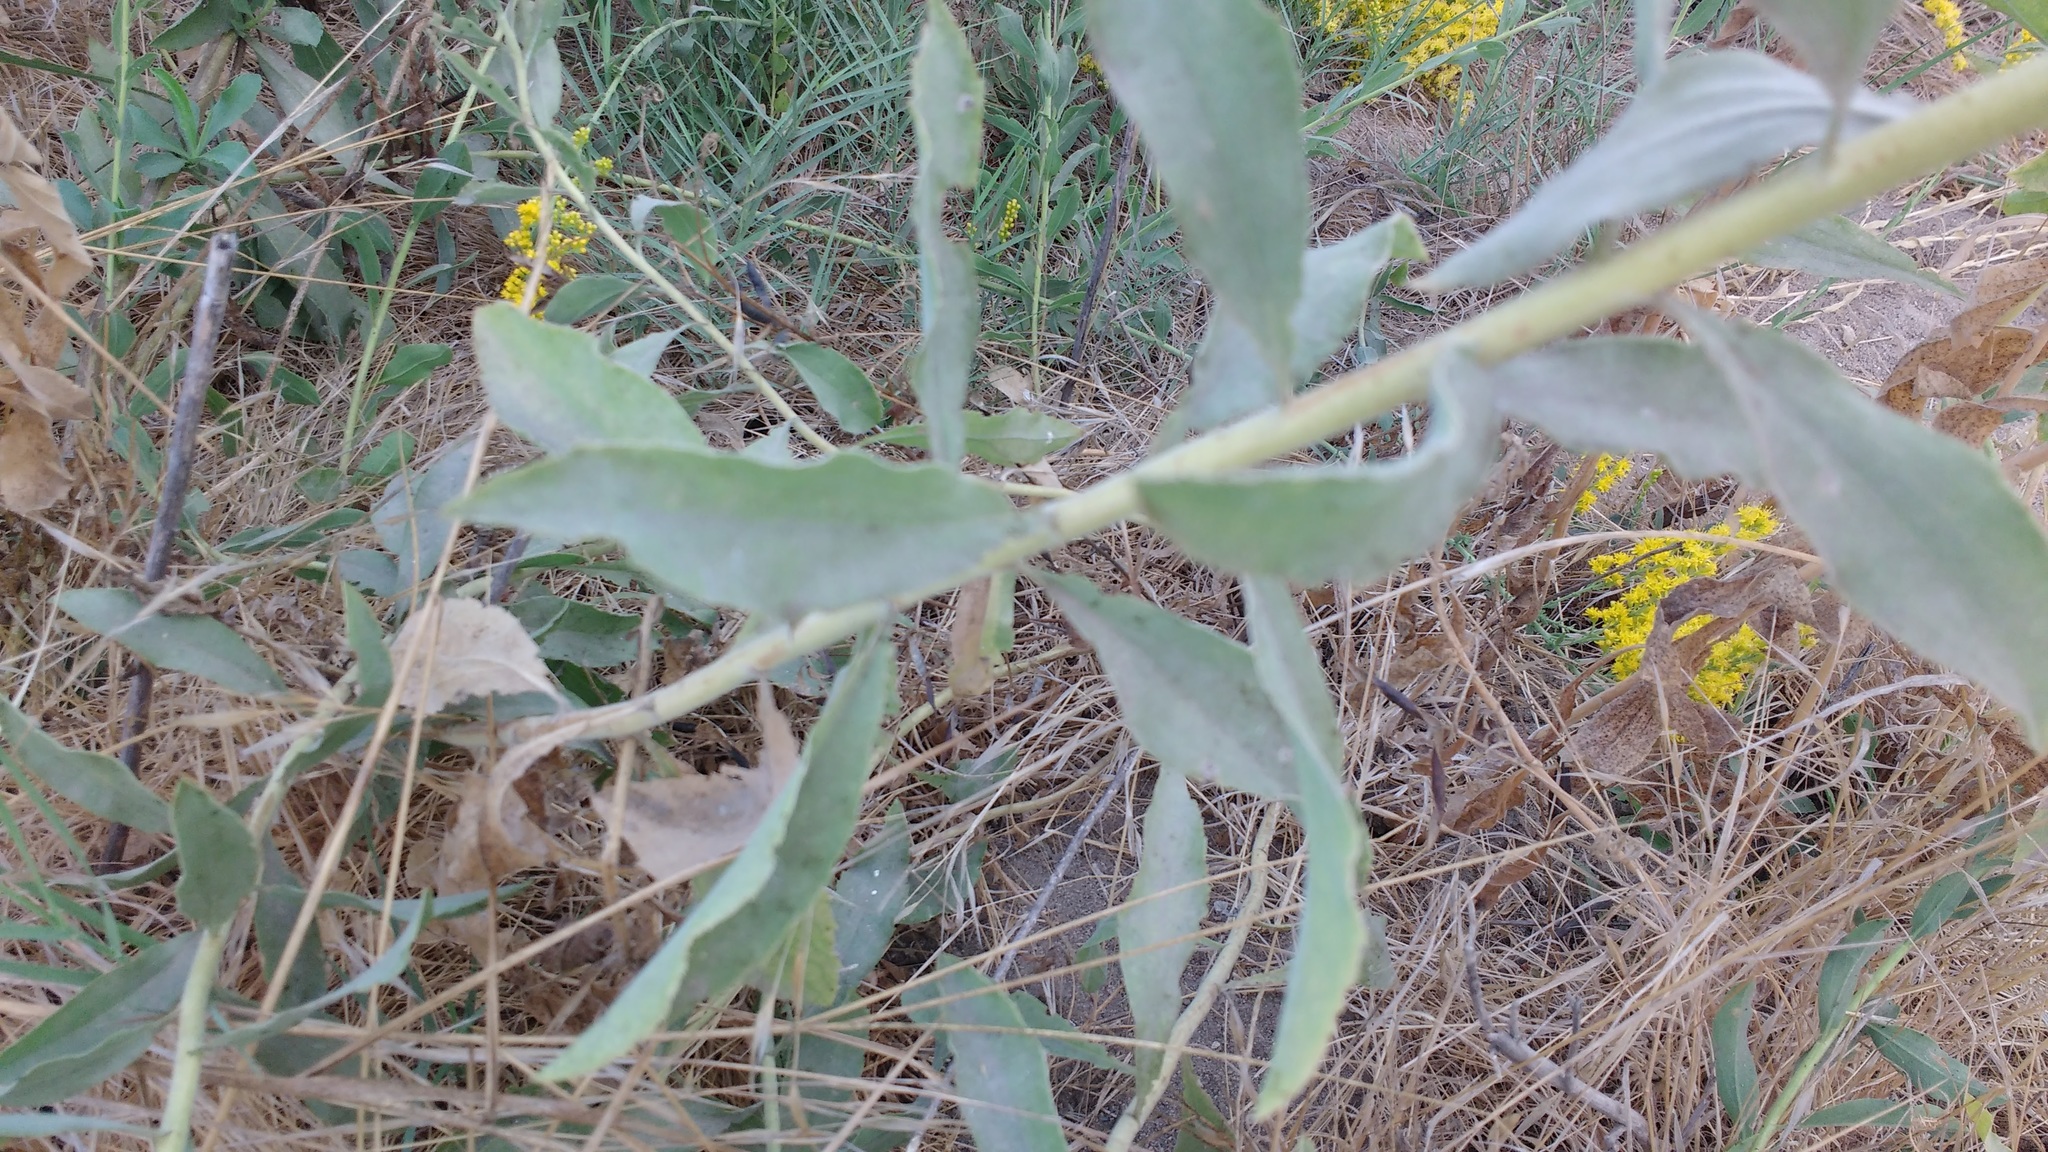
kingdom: Plantae
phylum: Tracheophyta
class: Magnoliopsida
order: Asterales
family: Asteraceae
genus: Solidago
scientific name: Solidago californica
